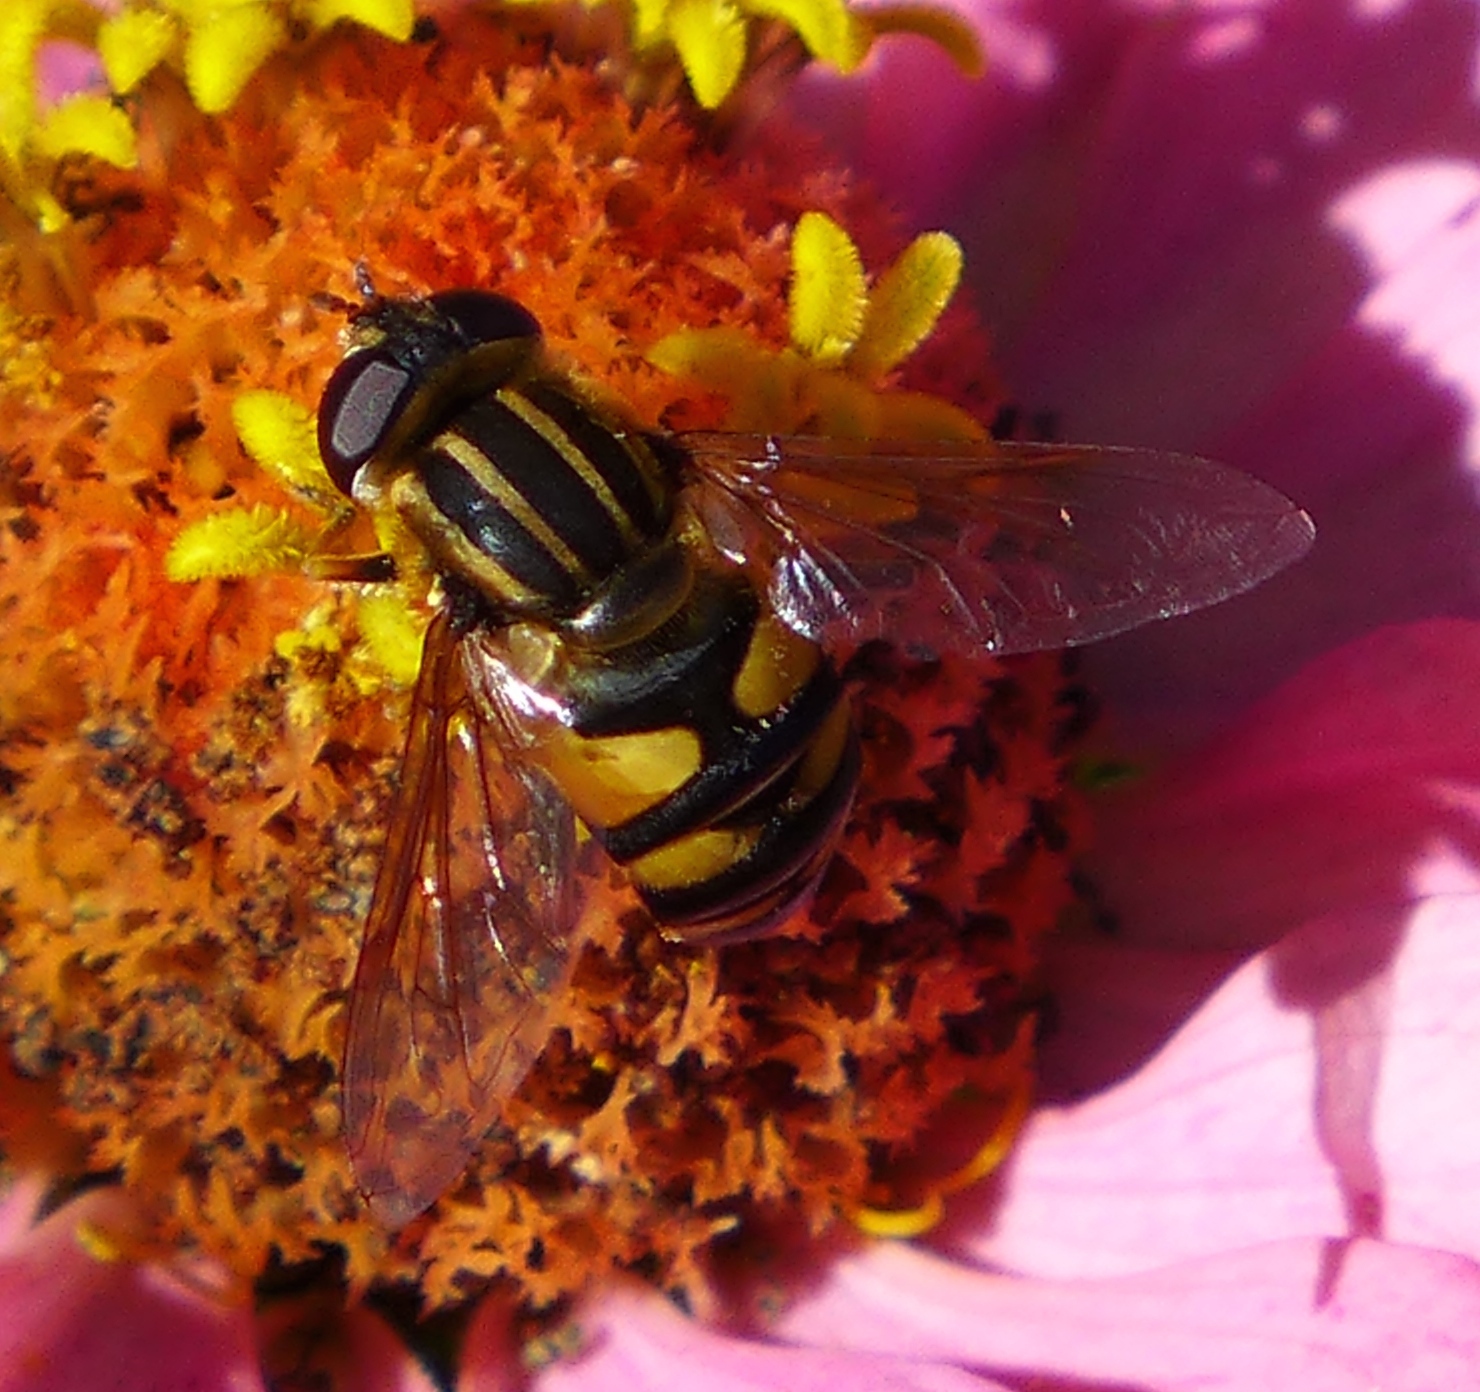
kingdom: Animalia
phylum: Arthropoda
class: Insecta
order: Diptera
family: Syrphidae
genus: Helophilus
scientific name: Helophilus fasciatus
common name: Narrow-headed marsh fly
